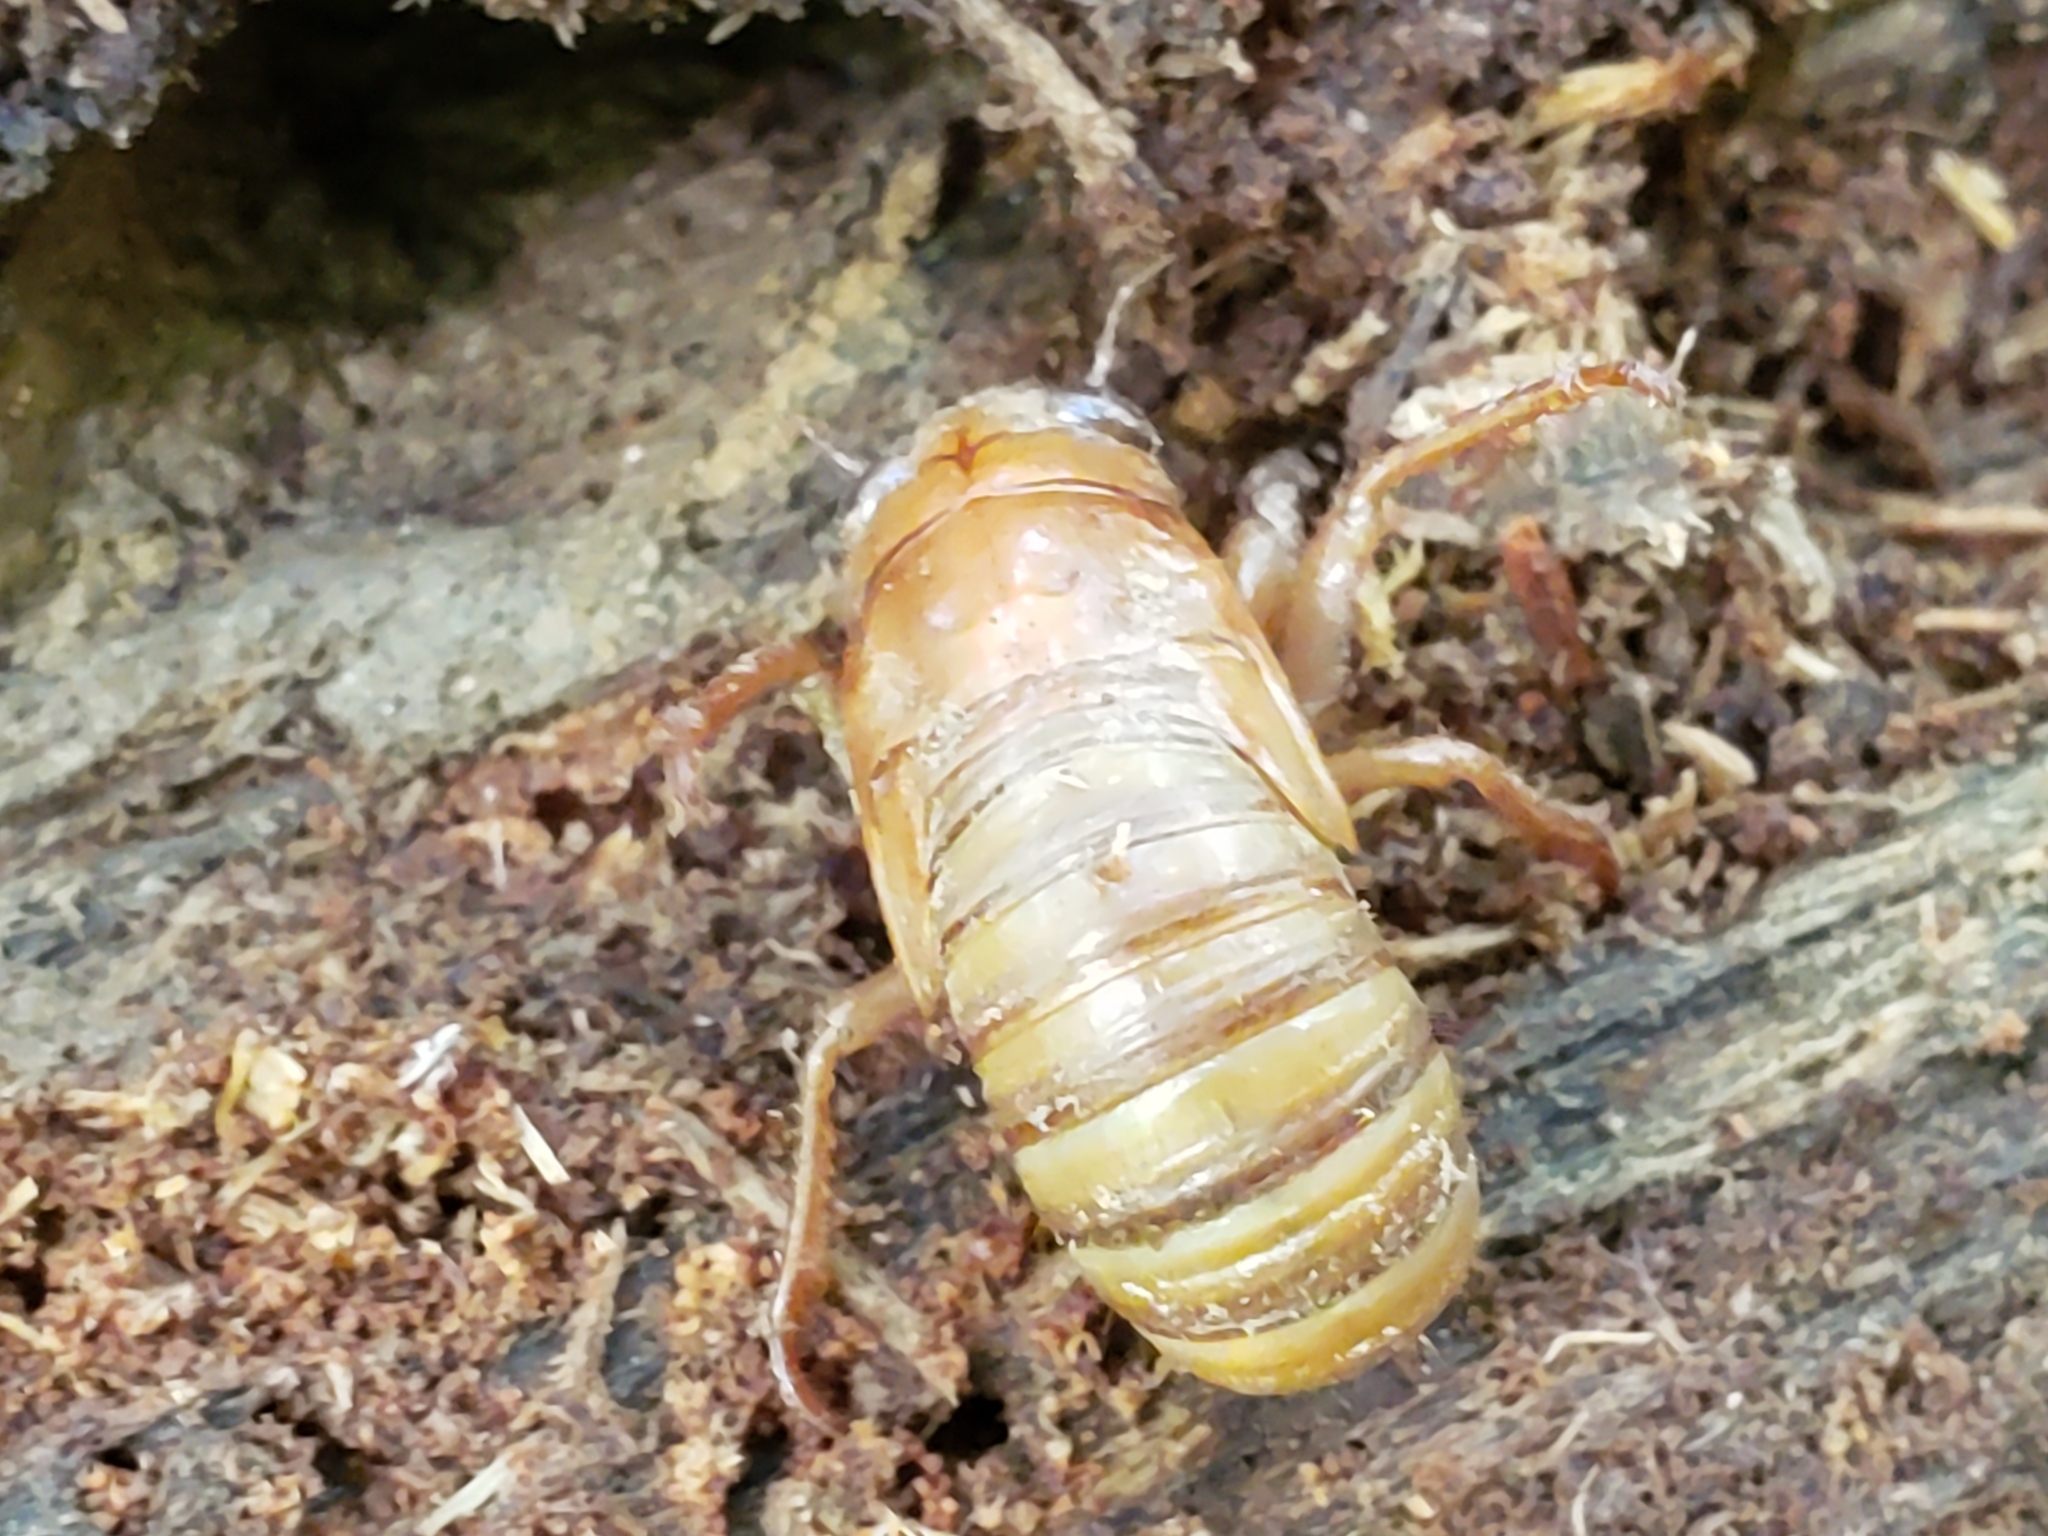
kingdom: Animalia
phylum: Arthropoda
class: Insecta
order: Hemiptera
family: Cicadidae
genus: Magicicada
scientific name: Magicicada
